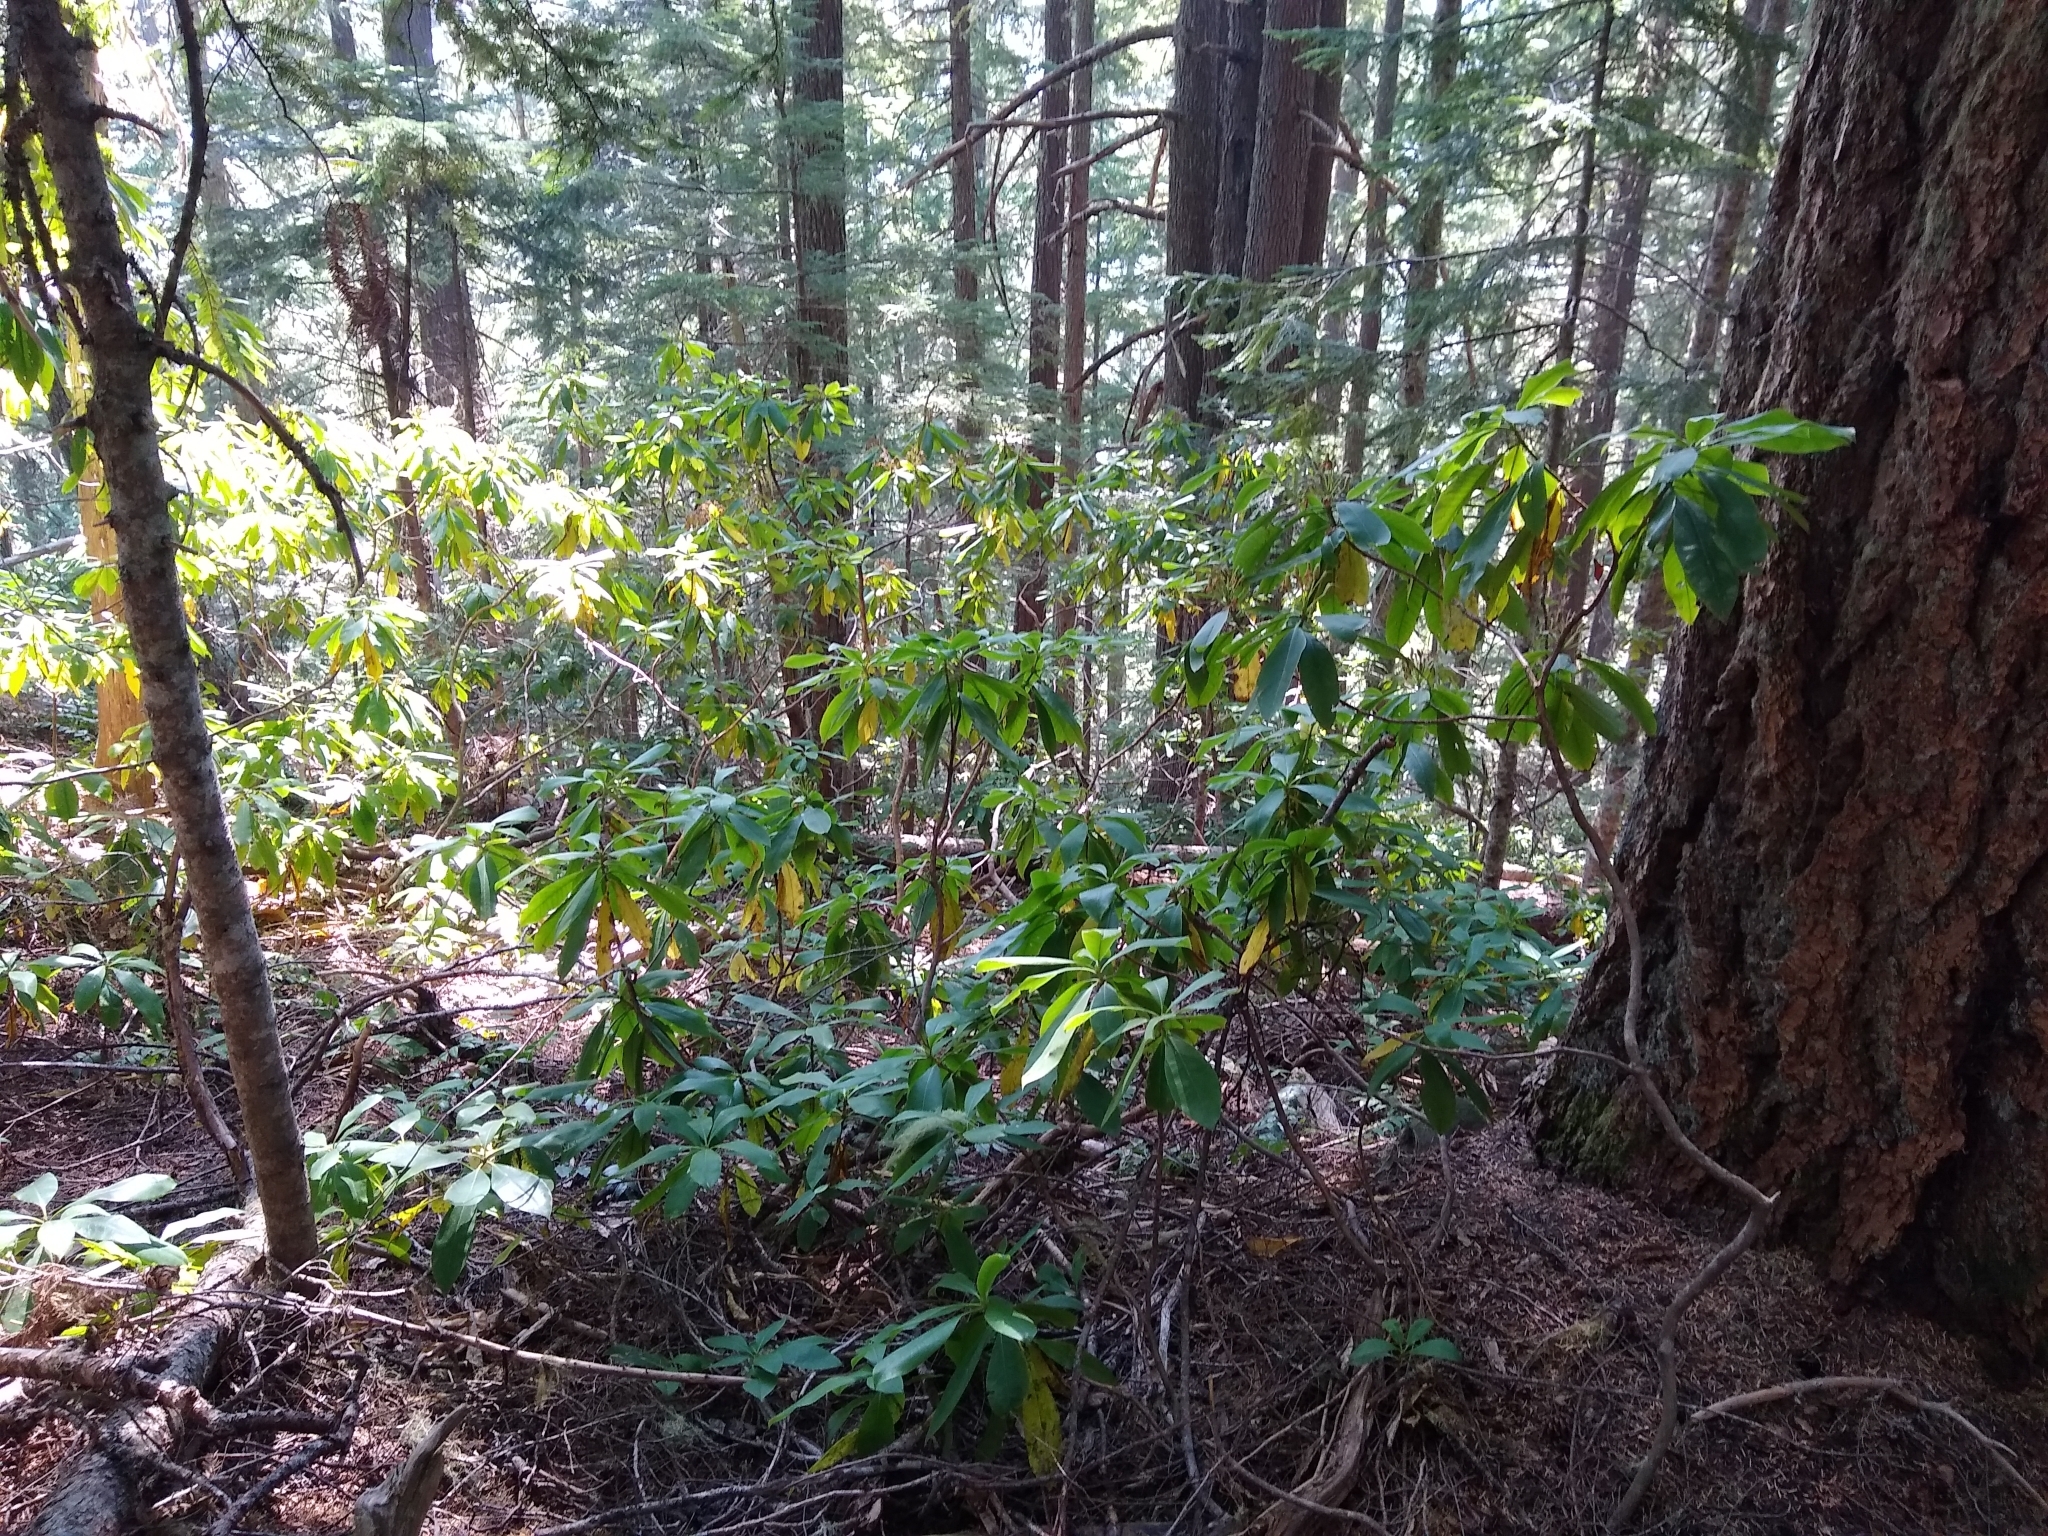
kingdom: Plantae
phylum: Tracheophyta
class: Magnoliopsida
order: Ericales
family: Ericaceae
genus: Rhododendron
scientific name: Rhododendron macrophyllum
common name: California rose bay
